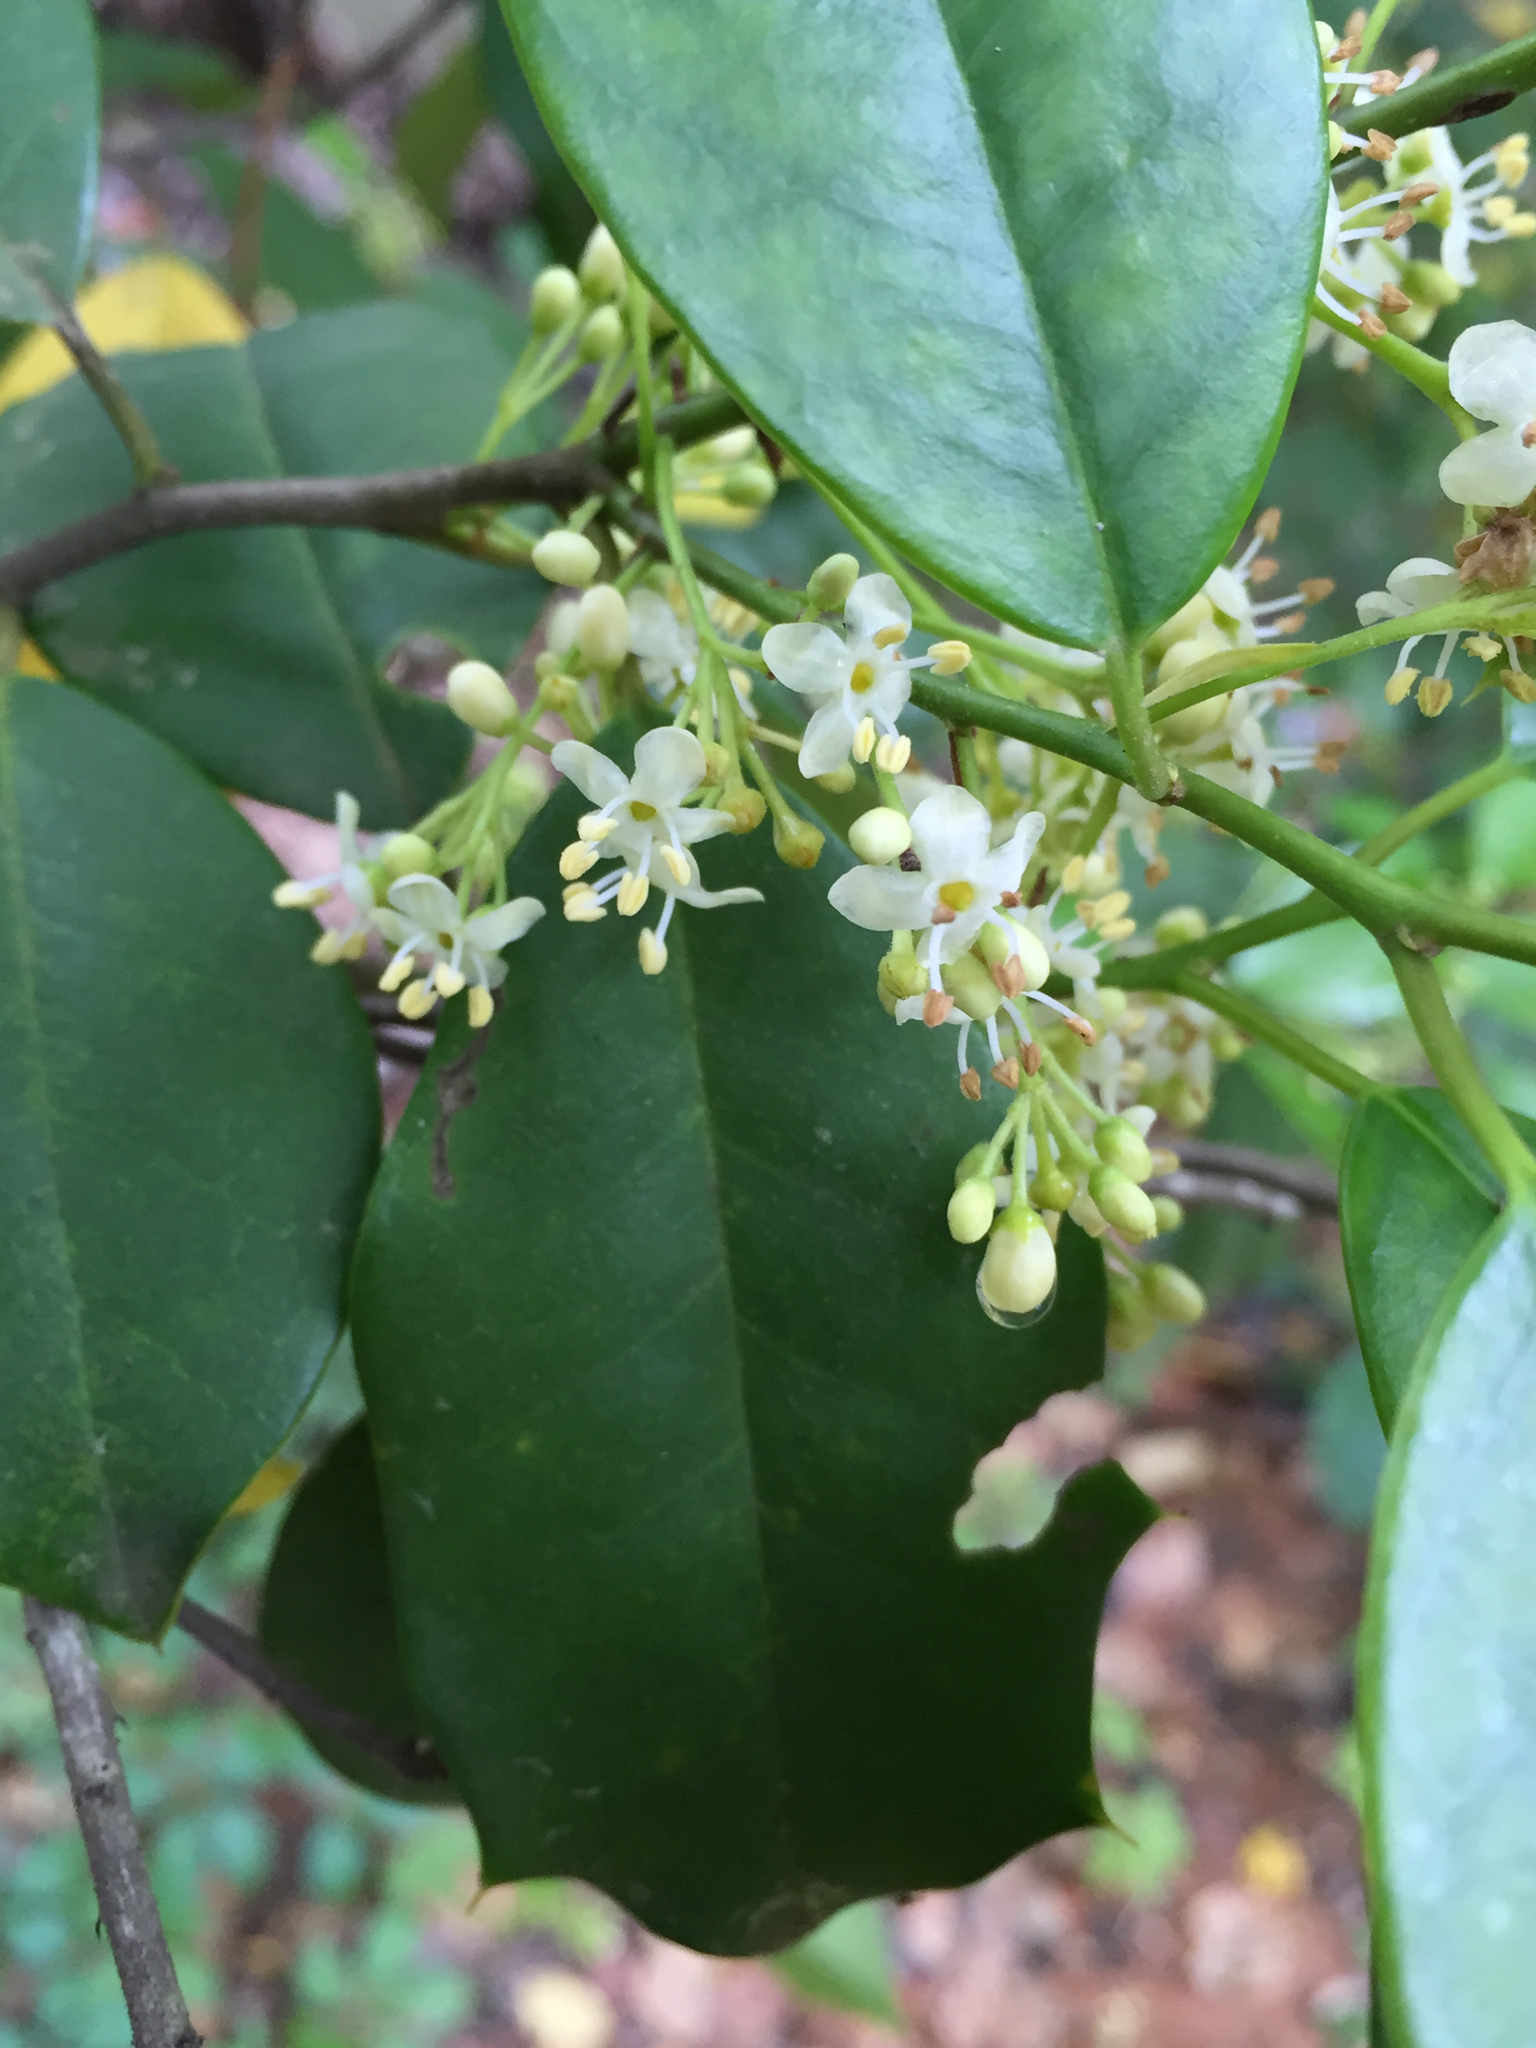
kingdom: Plantae
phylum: Tracheophyta
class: Magnoliopsida
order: Aquifoliales
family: Aquifoliaceae
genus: Ilex
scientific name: Ilex opaca
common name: American holly
